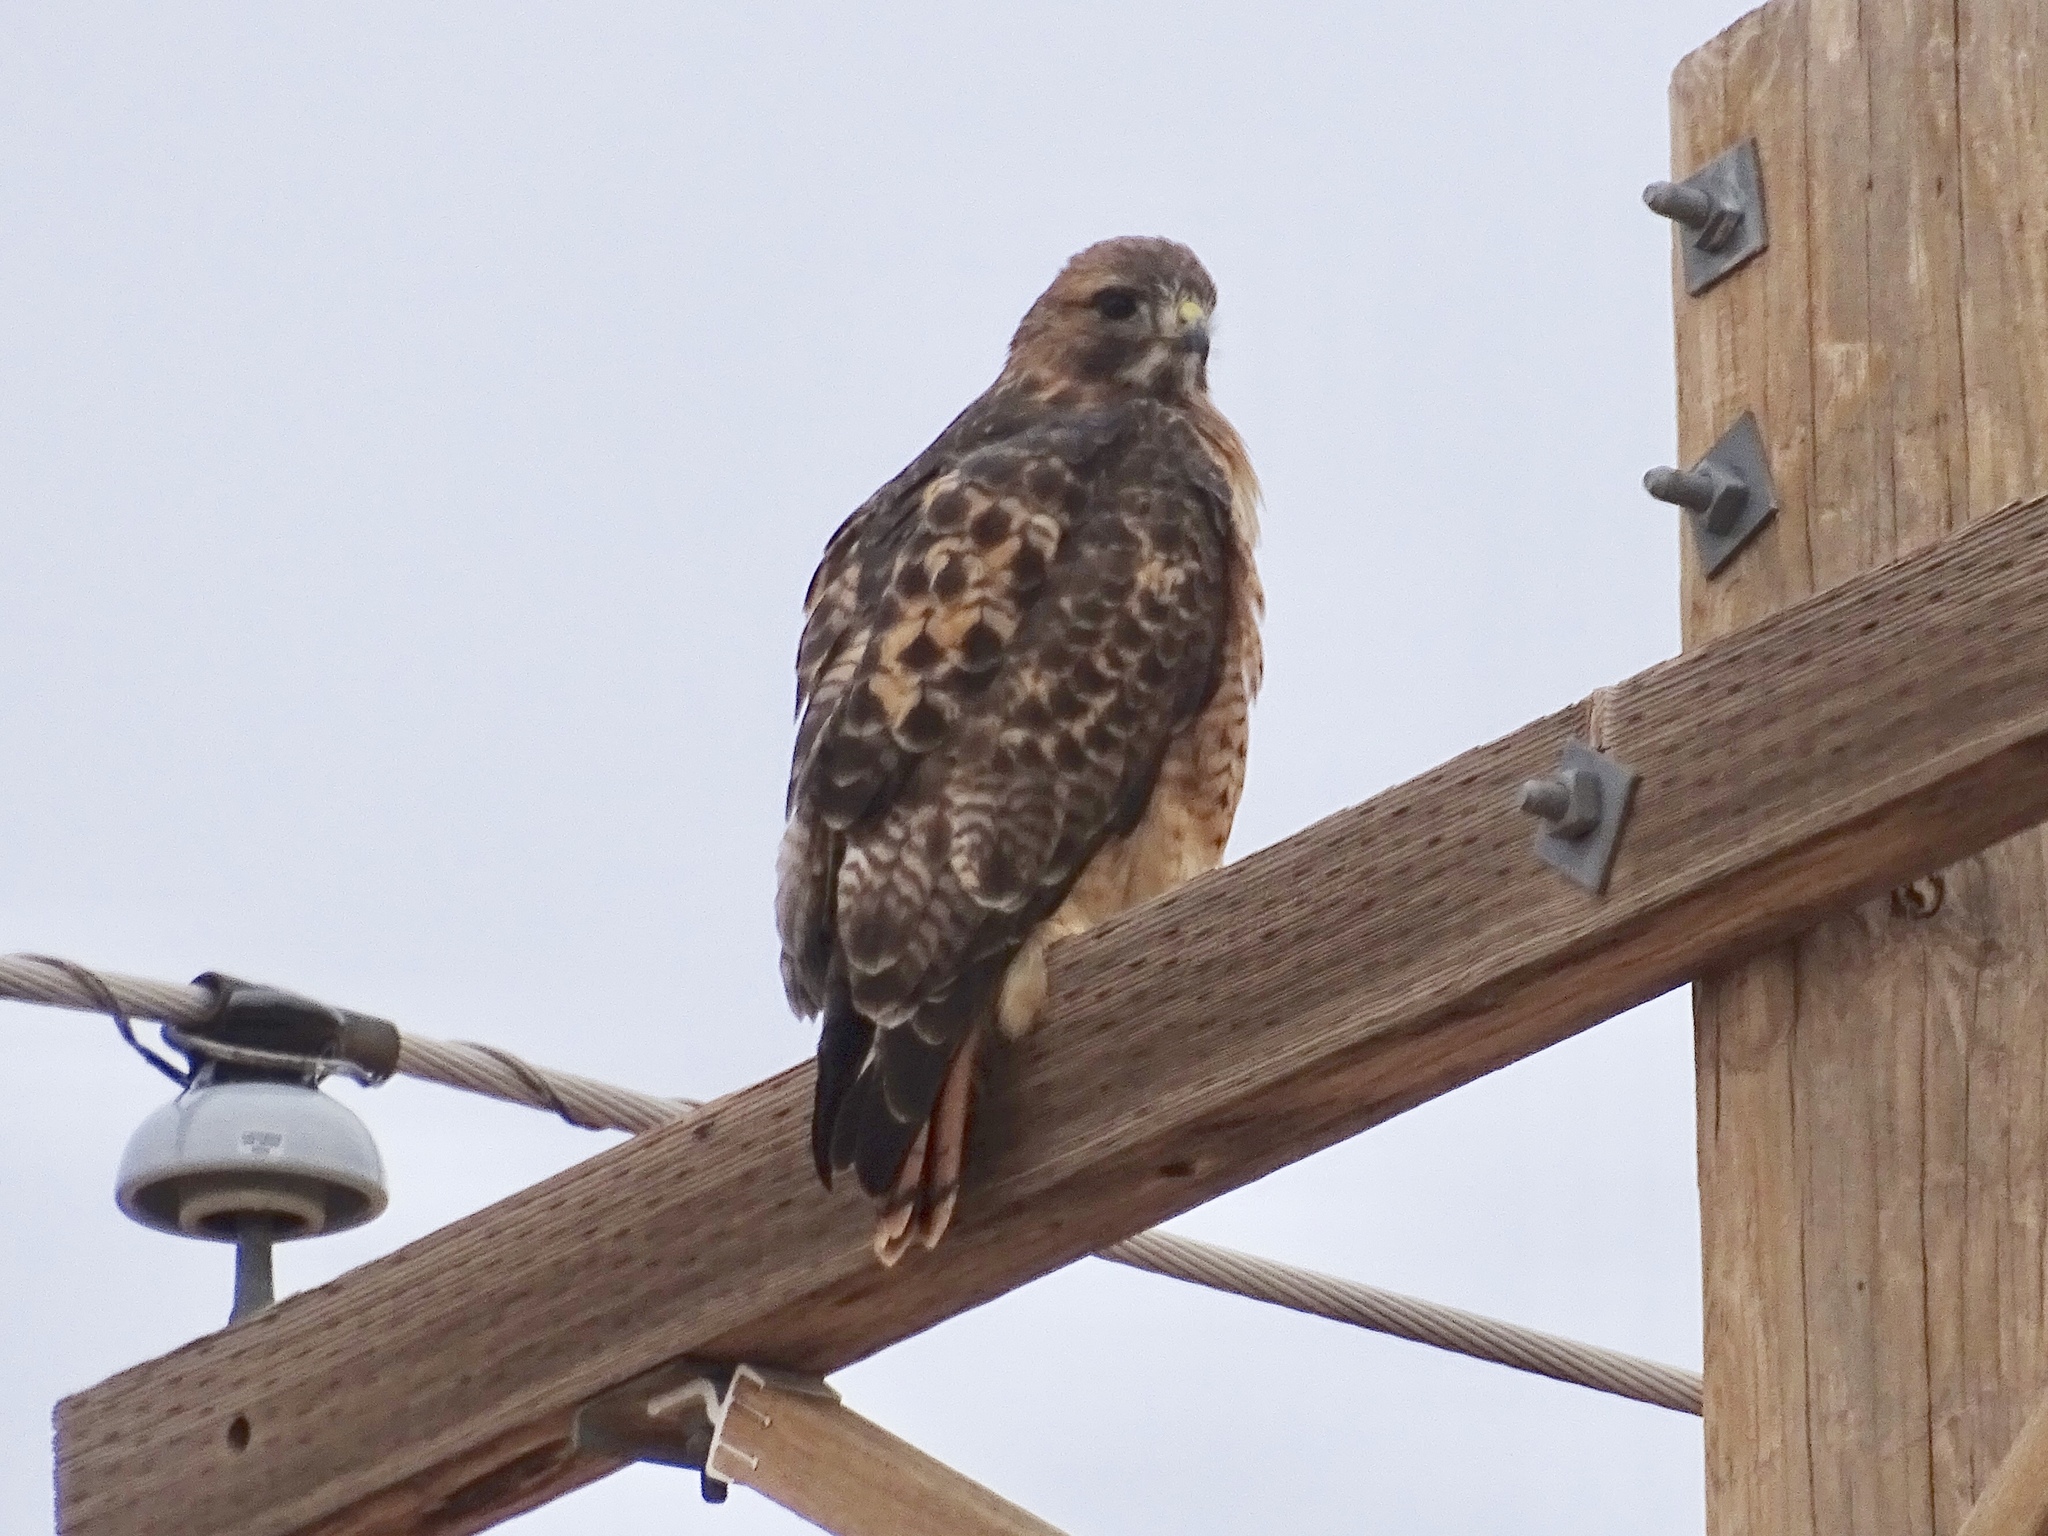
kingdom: Animalia
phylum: Chordata
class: Aves
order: Accipitriformes
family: Accipitridae
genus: Buteo
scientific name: Buteo jamaicensis
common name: Red-tailed hawk
